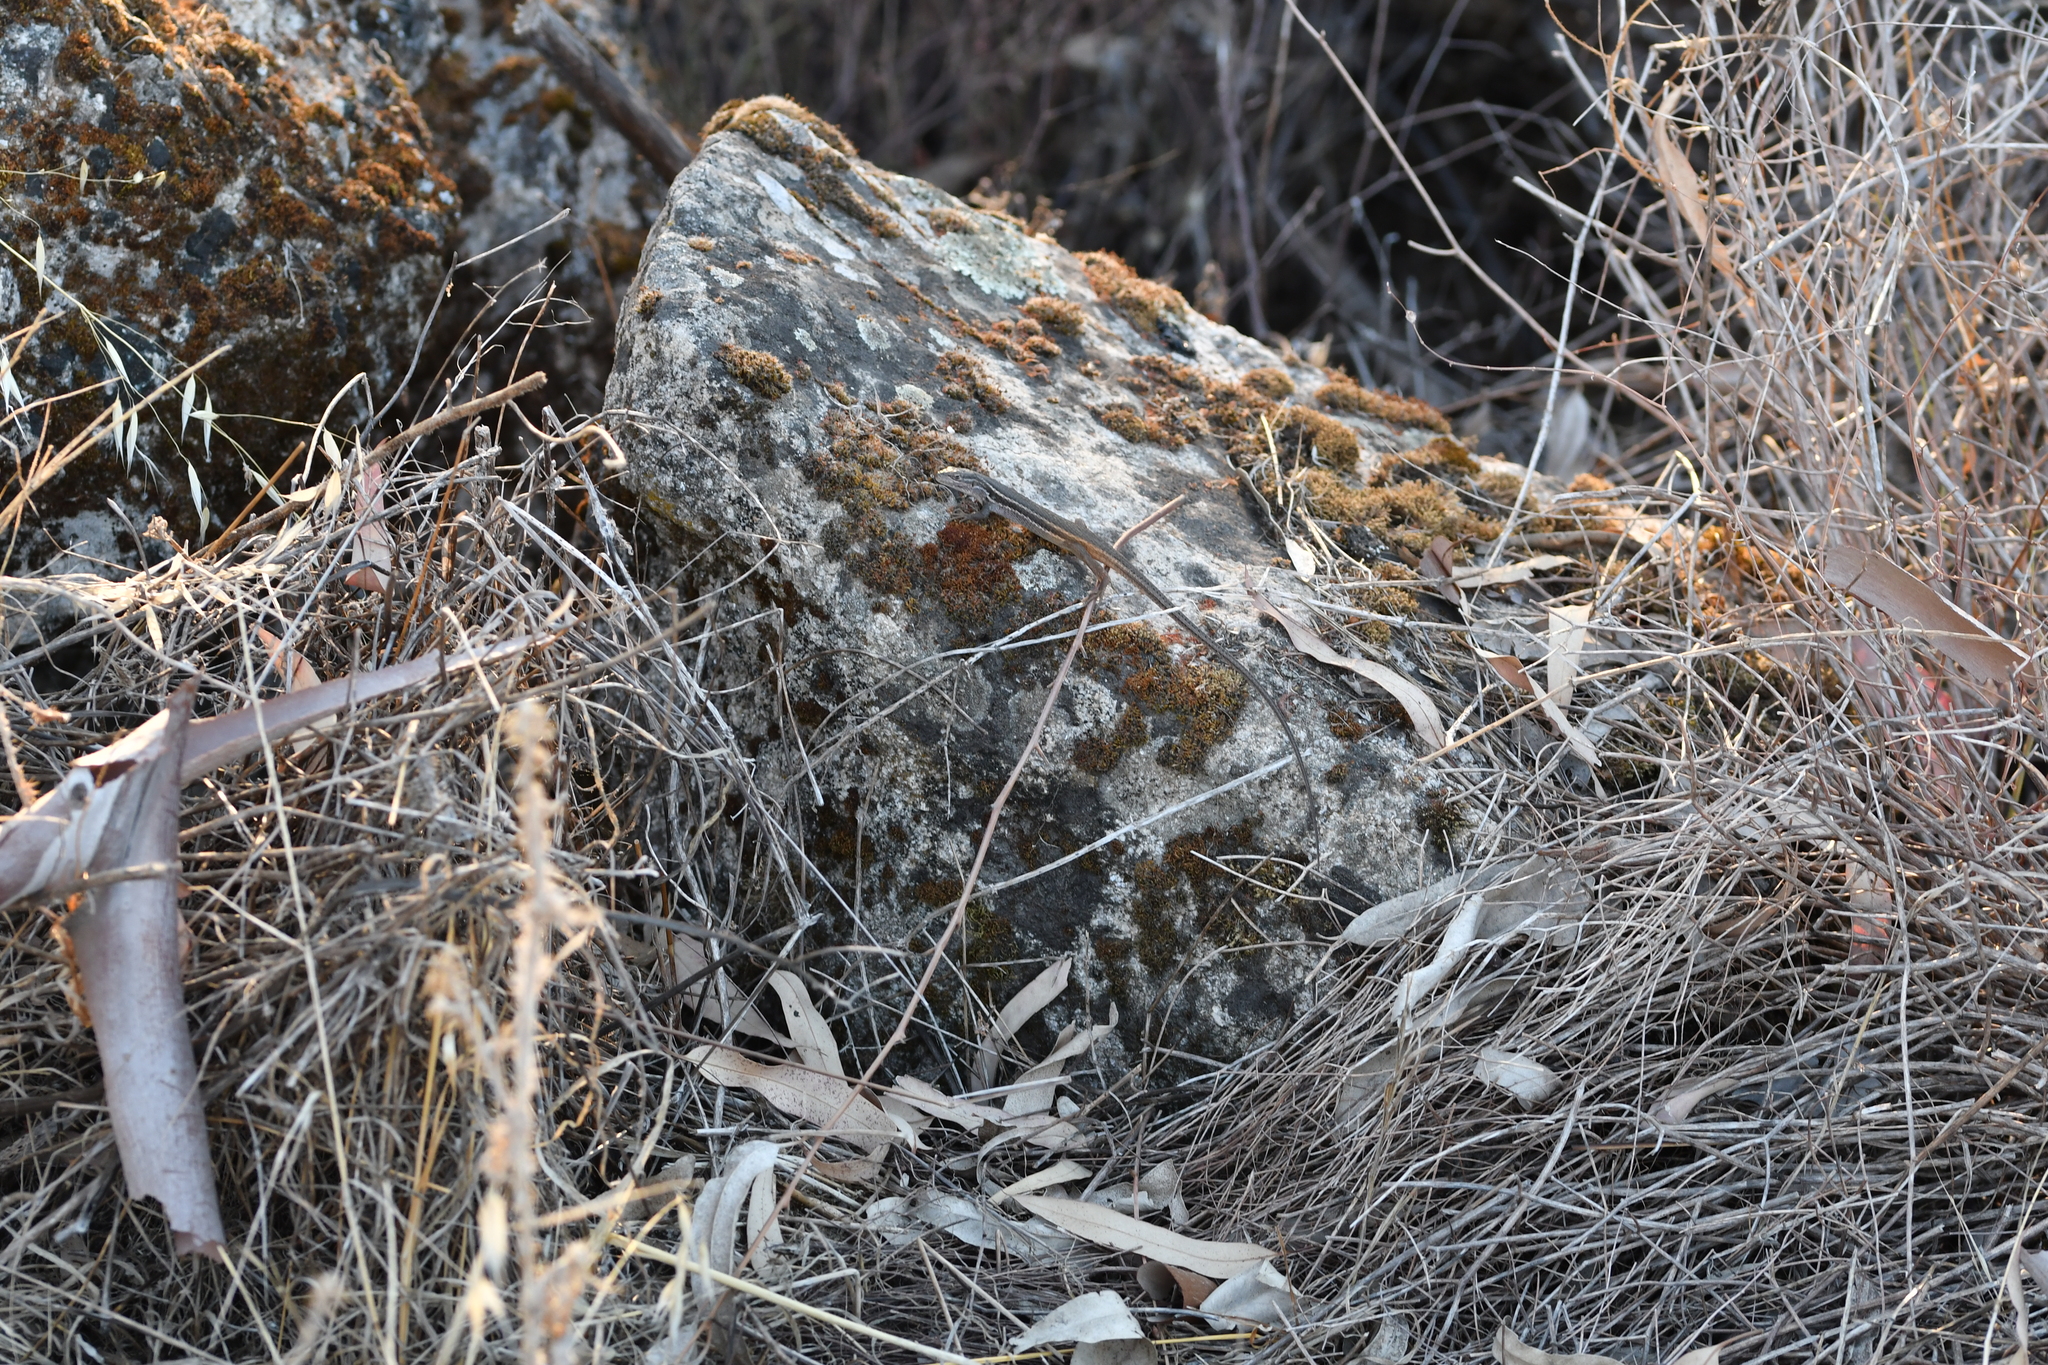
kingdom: Animalia
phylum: Chordata
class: Squamata
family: Lacertidae
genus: Psammodromus
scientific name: Psammodromus algirus
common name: Algerian psammodromus
